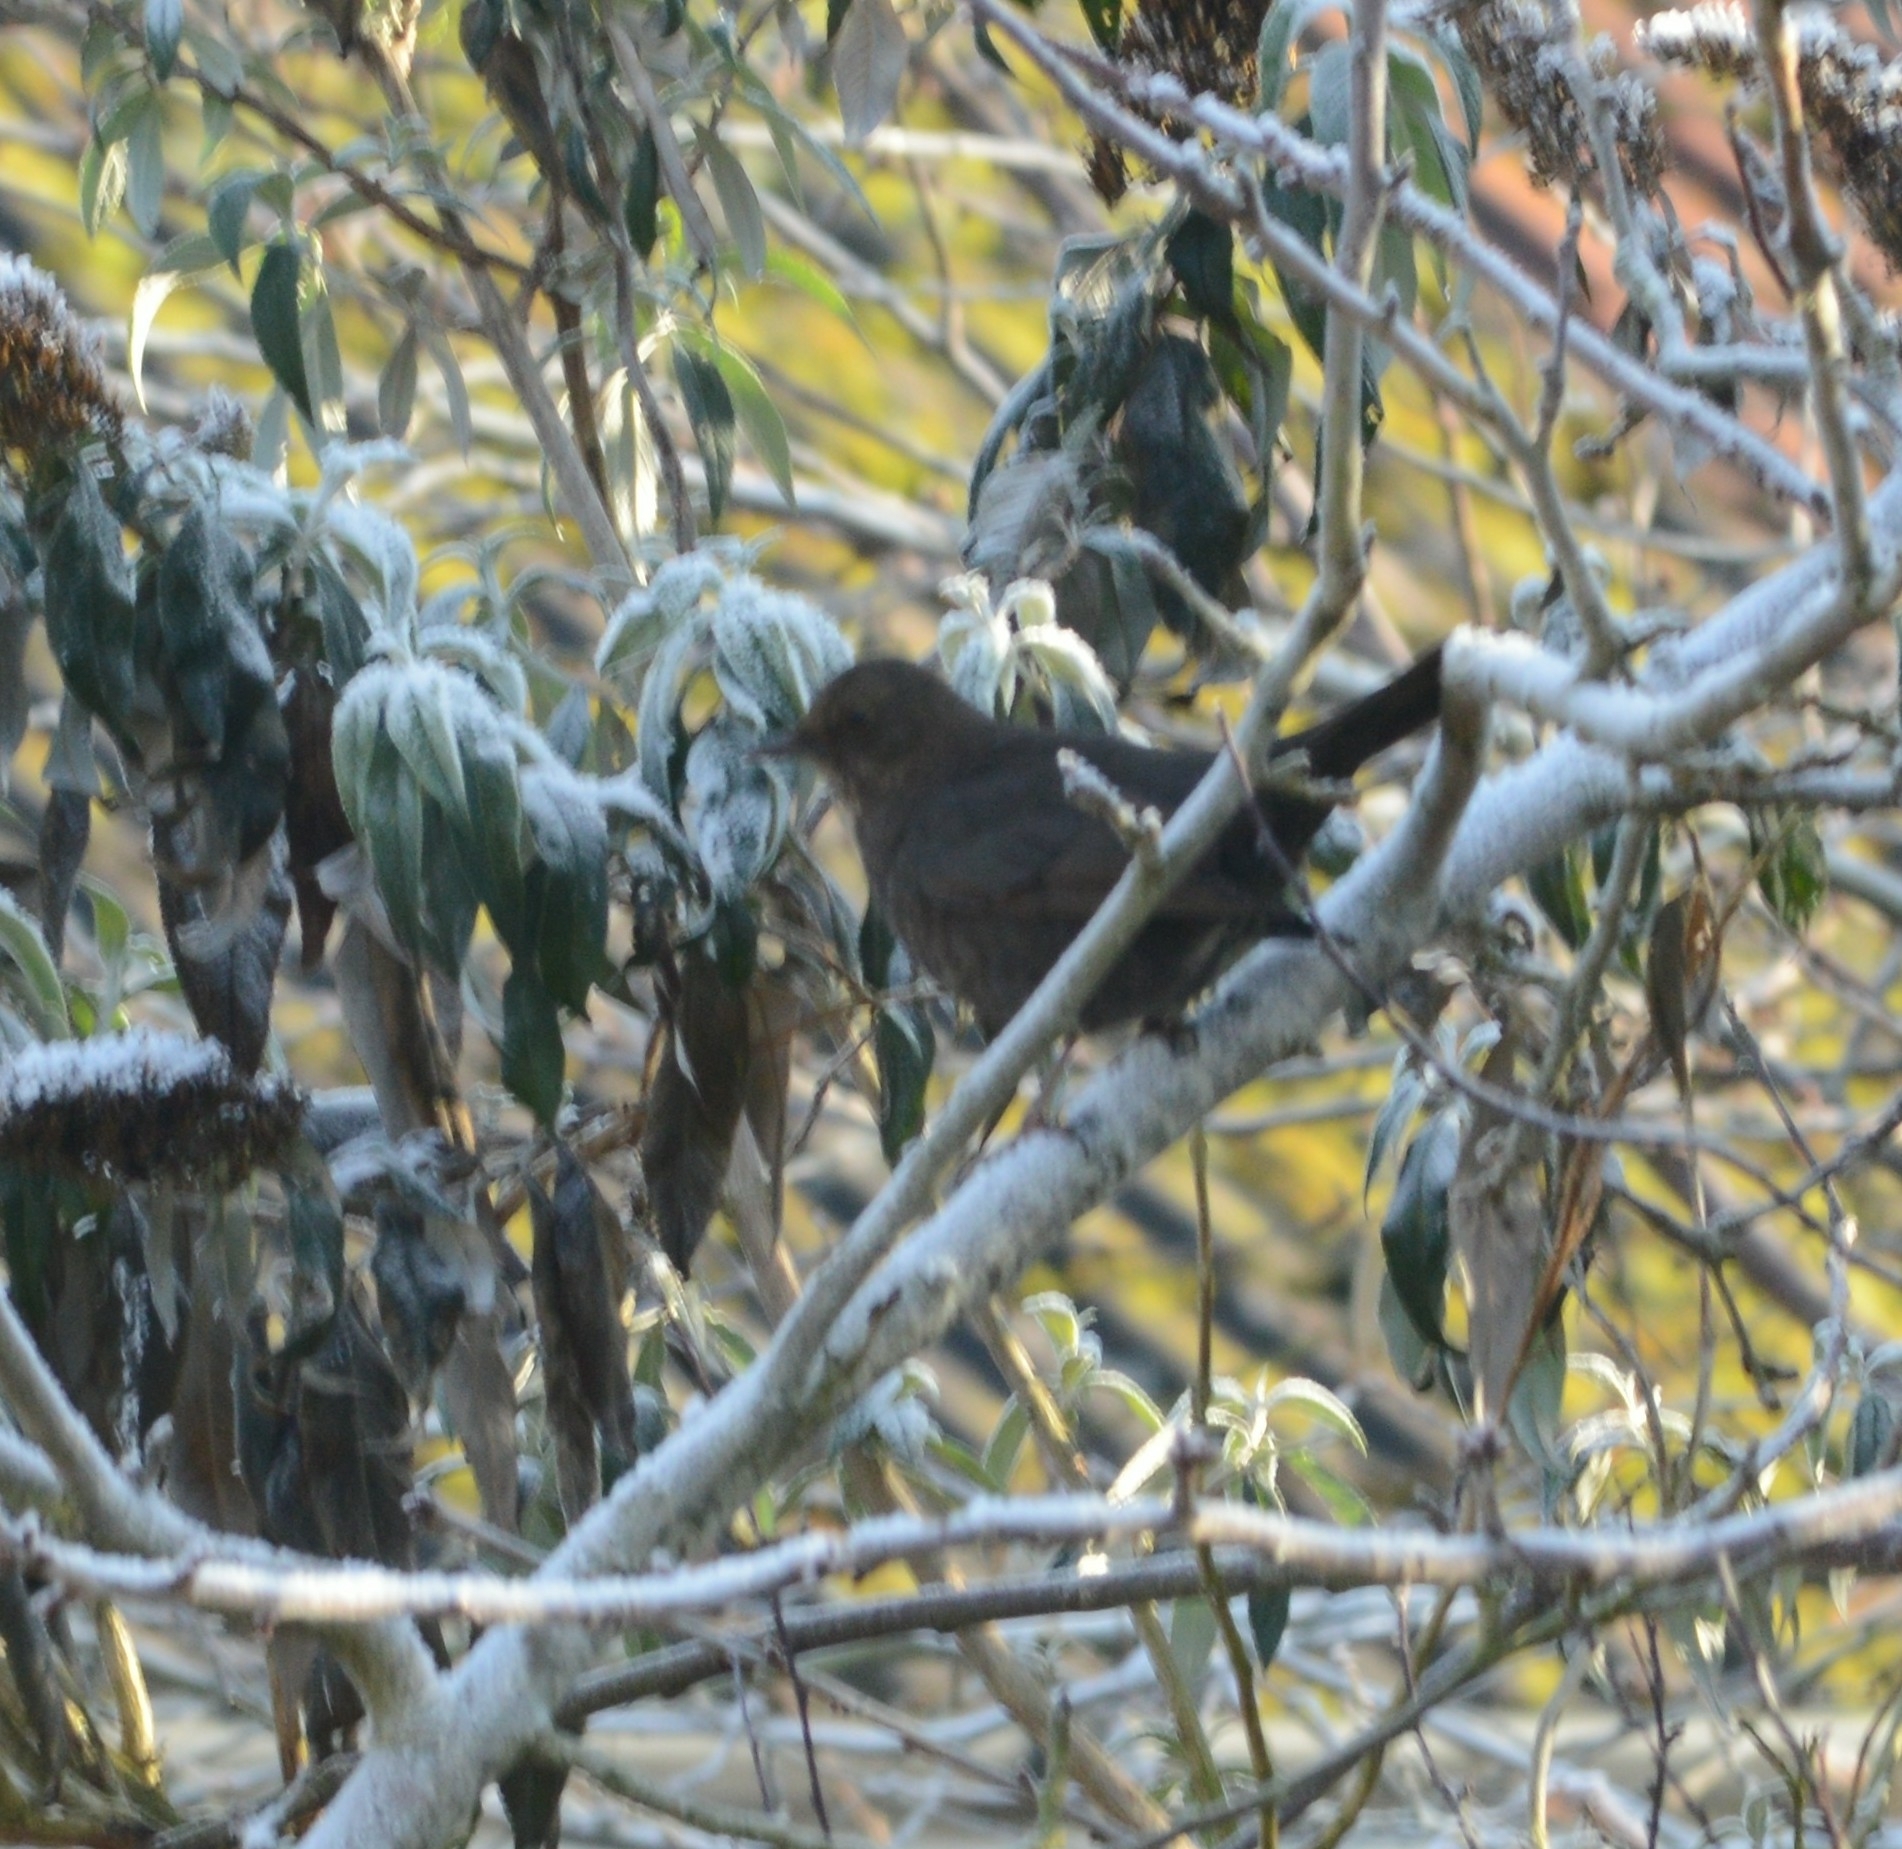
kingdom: Animalia
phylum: Chordata
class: Aves
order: Passeriformes
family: Turdidae
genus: Turdus
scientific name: Turdus merula
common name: Common blackbird
